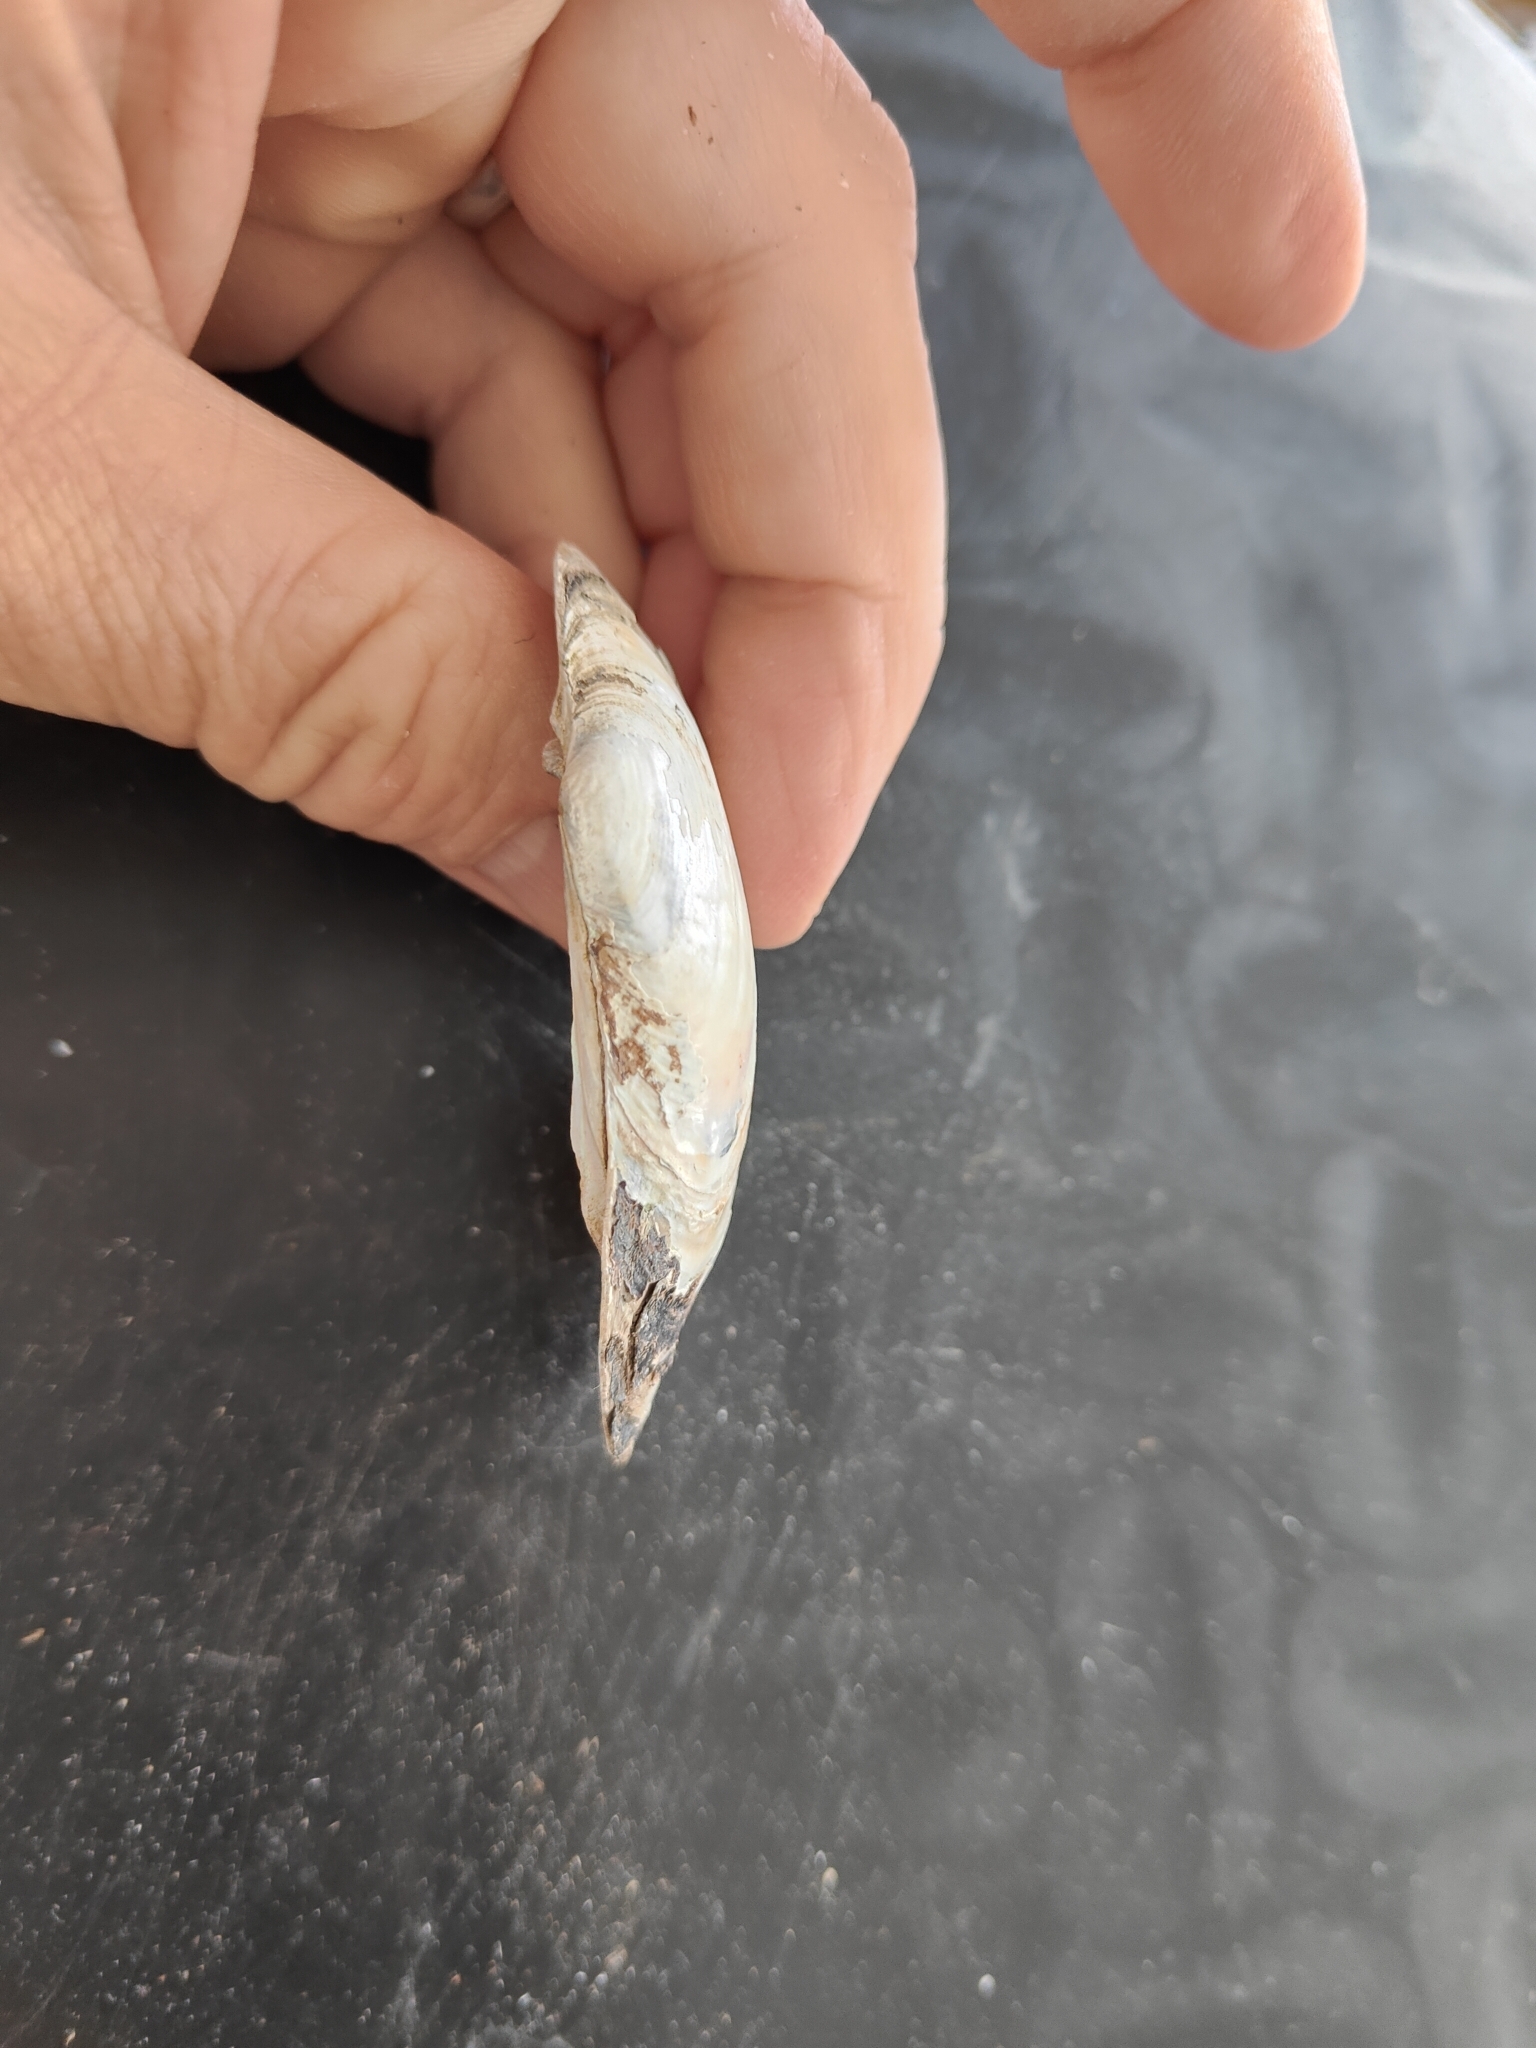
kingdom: Animalia
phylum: Mollusca
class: Bivalvia
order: Unionida
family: Unionidae
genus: Lampsilis
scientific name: Lampsilis siliquoidea
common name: Fatmucket
